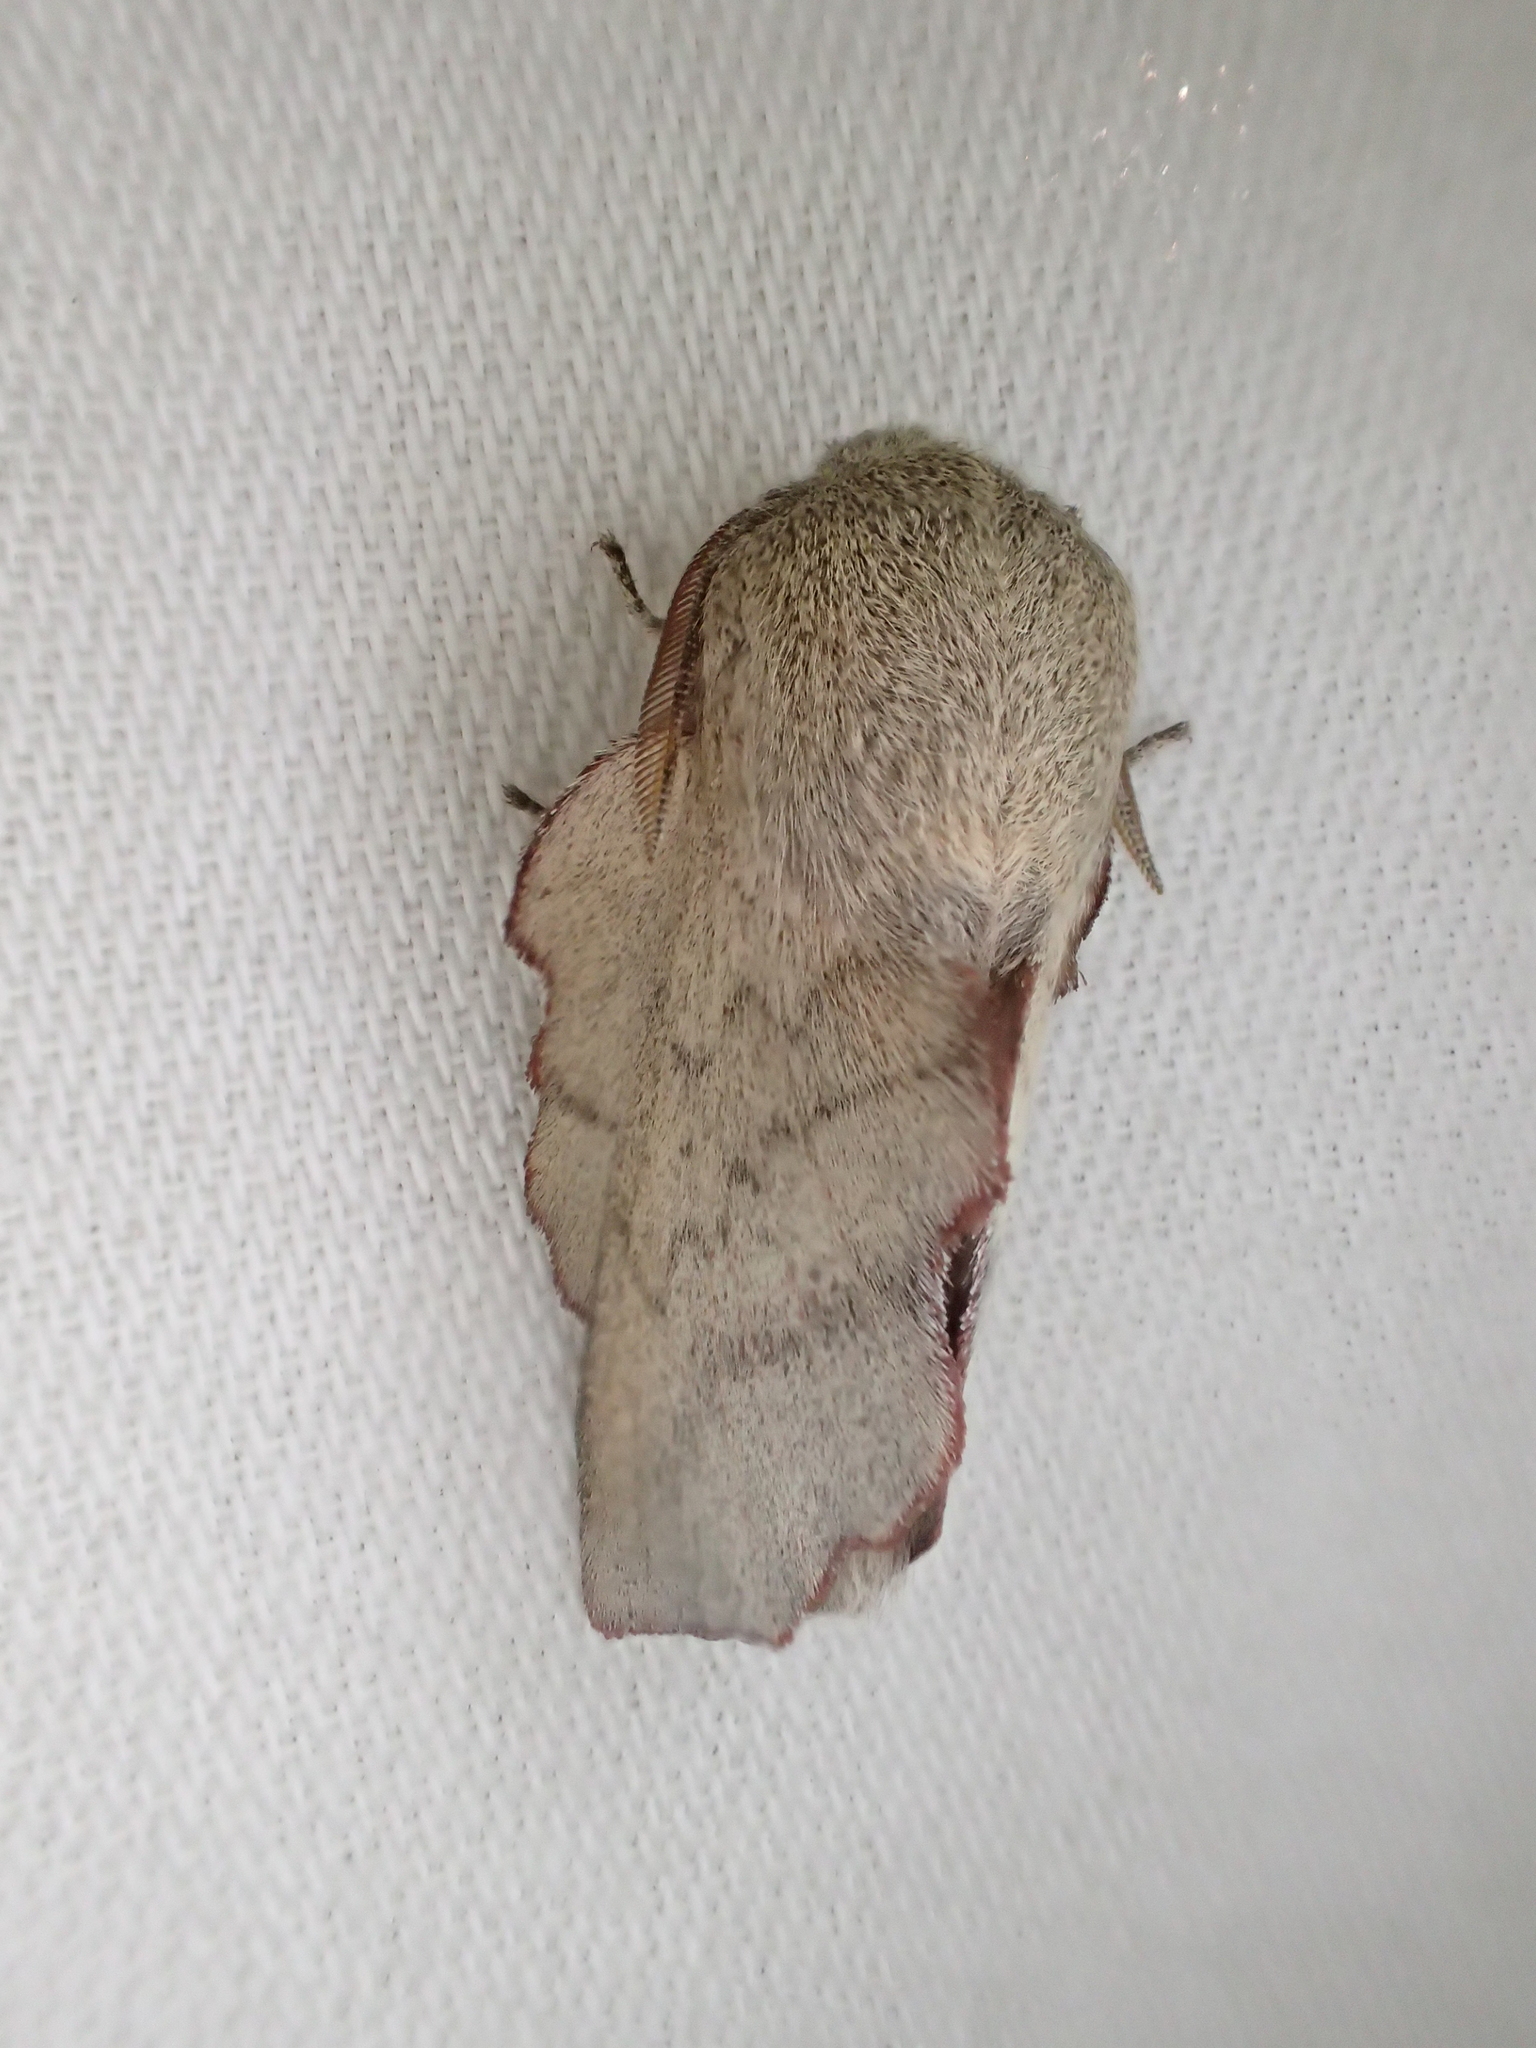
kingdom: Animalia
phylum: Arthropoda
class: Insecta
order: Lepidoptera
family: Lasiocampidae
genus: Phyllodesma
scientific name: Phyllodesma suberifolia
